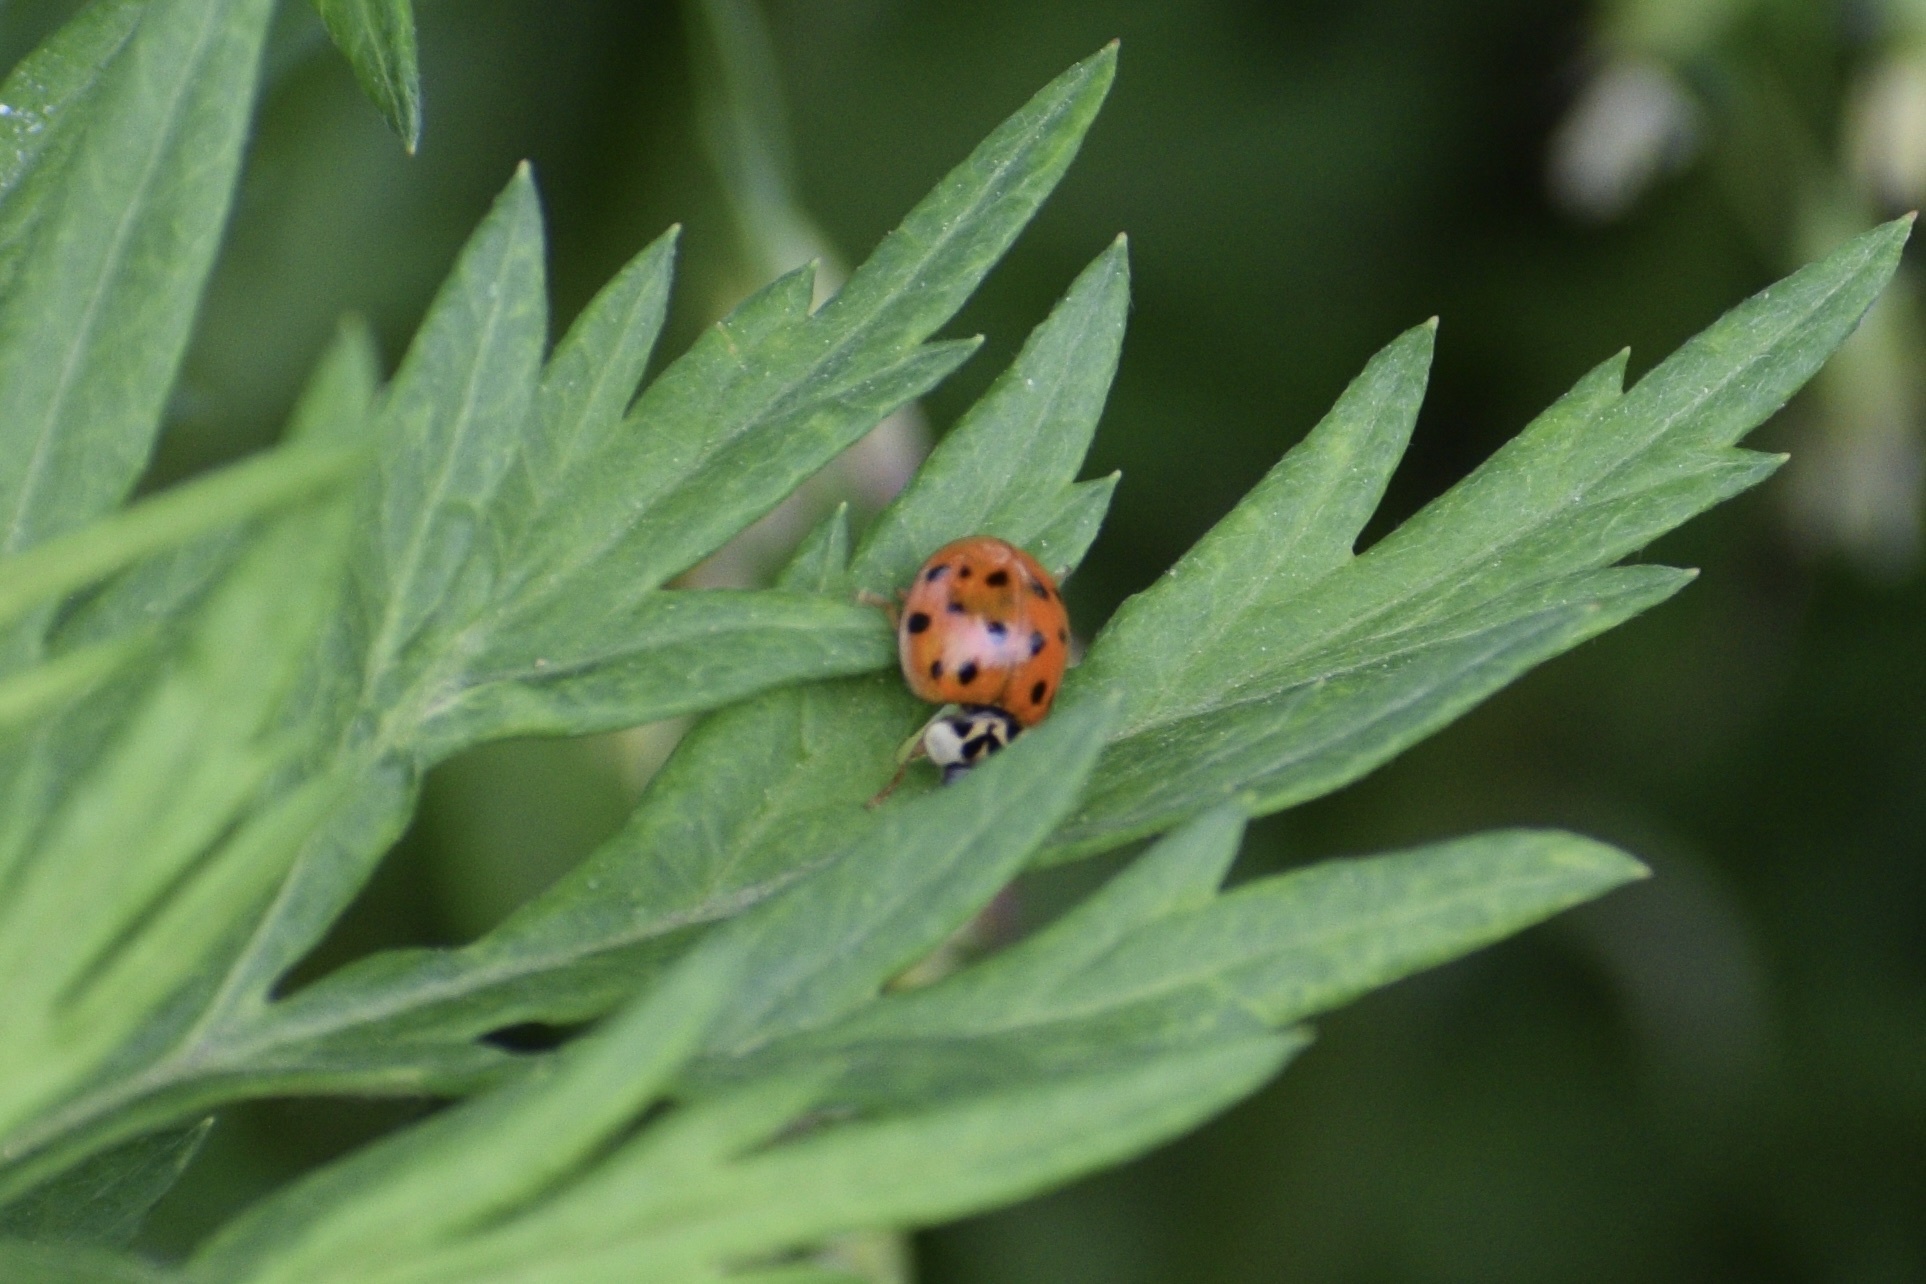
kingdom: Animalia
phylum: Arthropoda
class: Insecta
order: Coleoptera
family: Coccinellidae
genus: Harmonia
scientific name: Harmonia axyridis
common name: Harlequin ladybird
